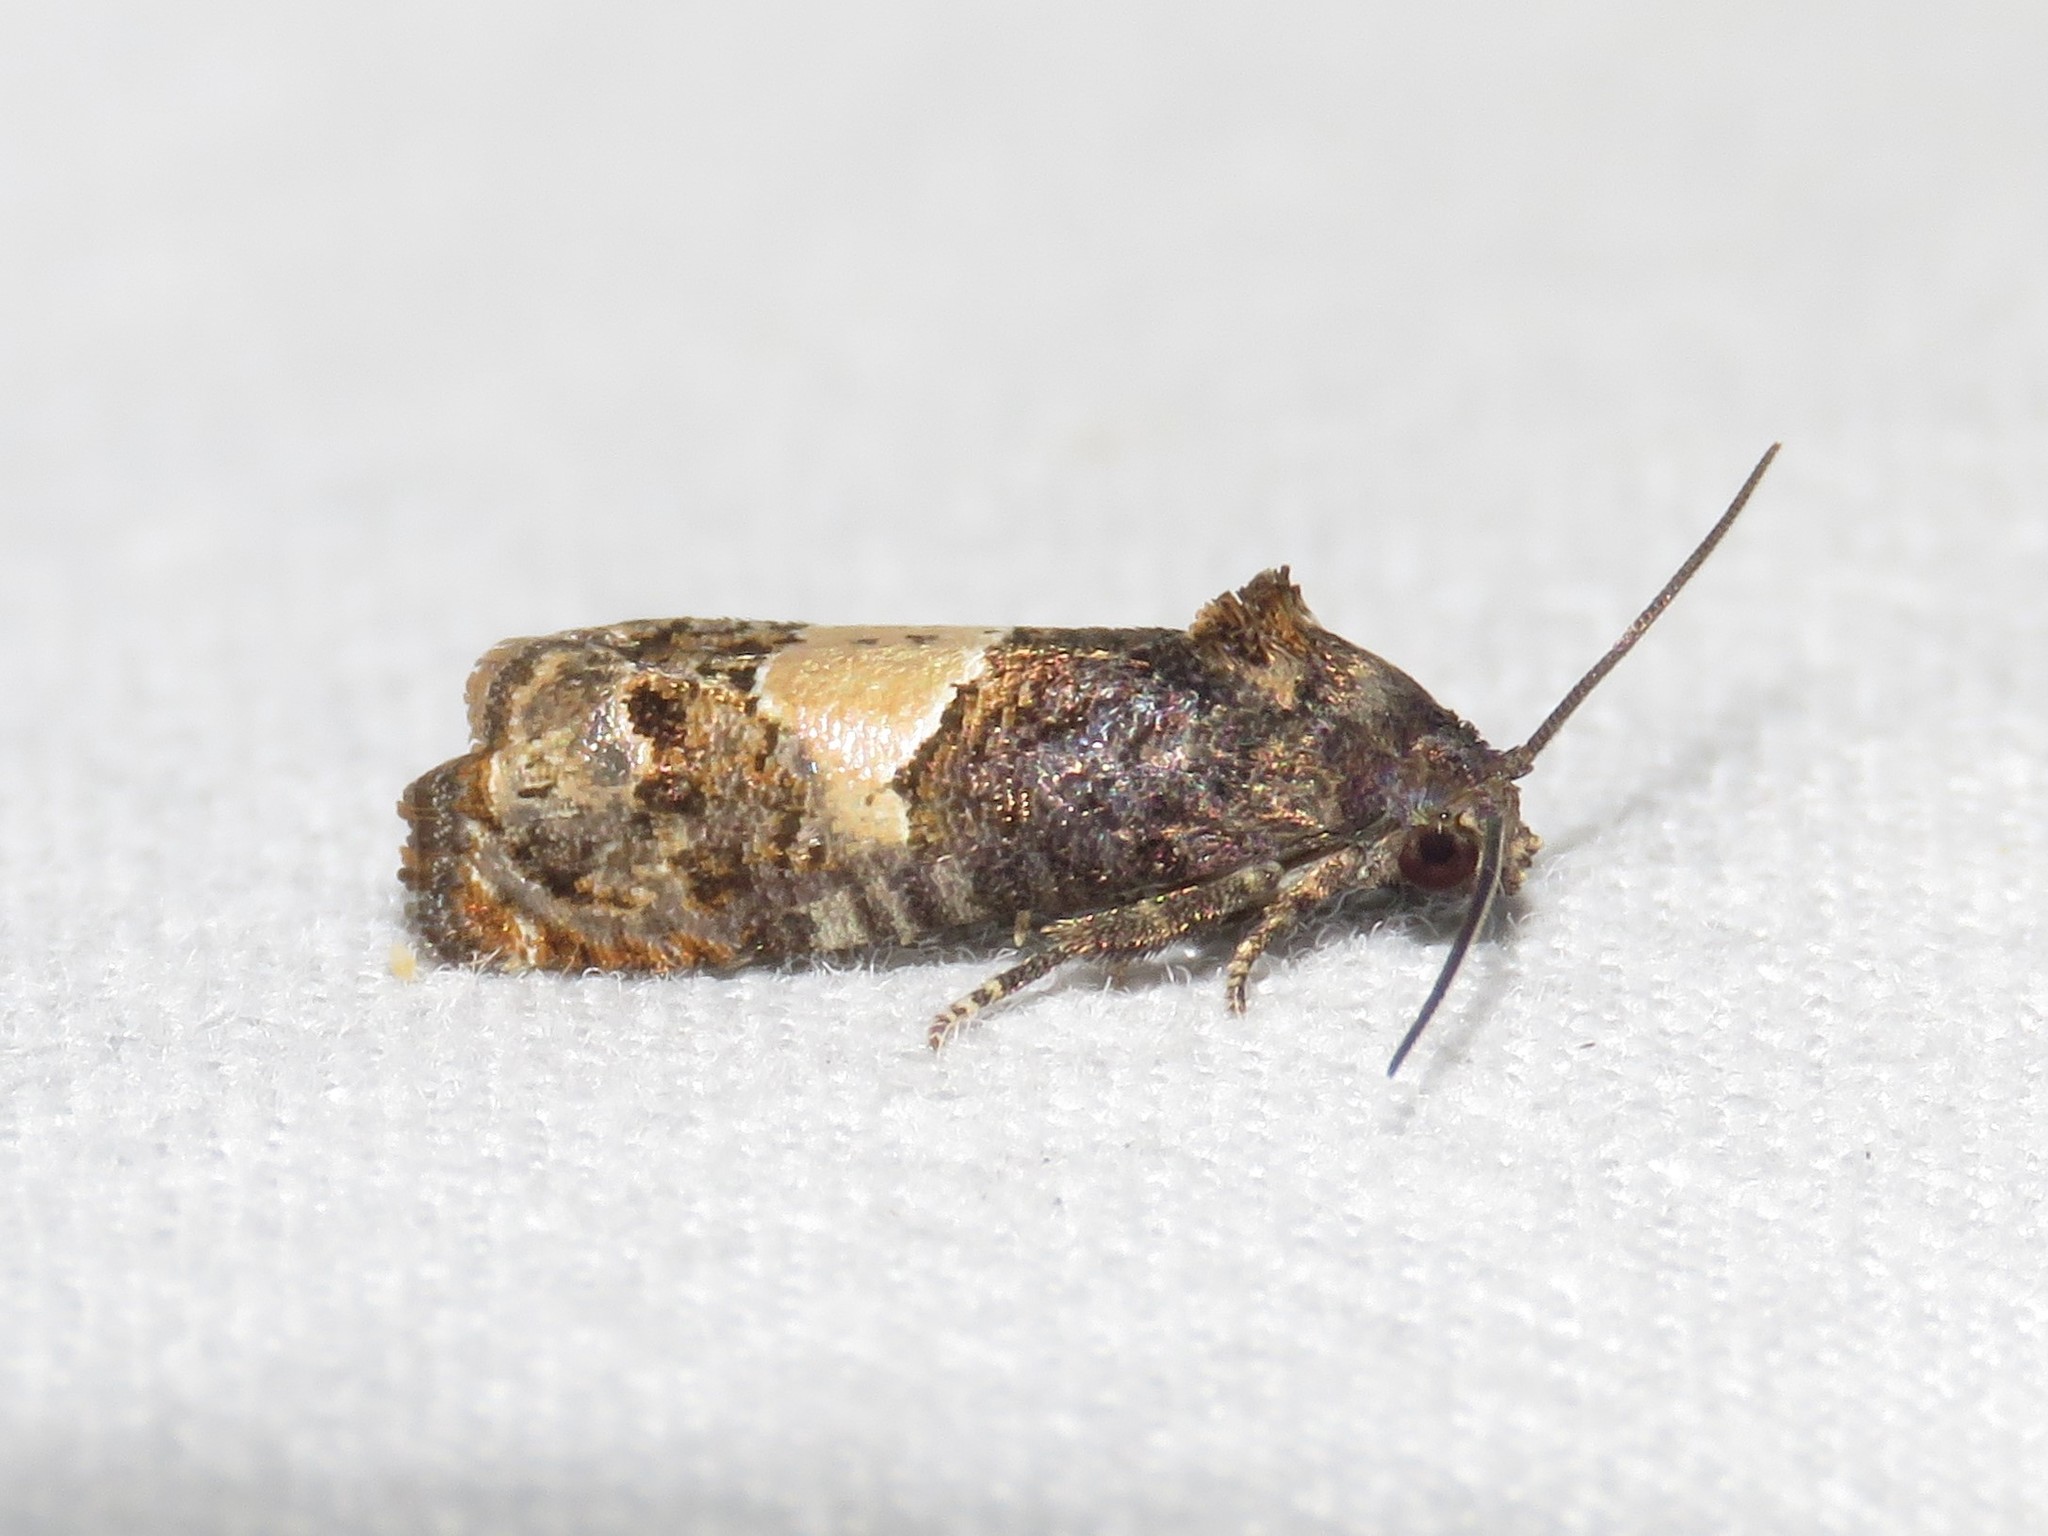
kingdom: Animalia
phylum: Arthropoda
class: Insecta
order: Lepidoptera
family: Tortricidae
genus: Epiblema
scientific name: Epiblema glenni
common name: Glenn's epiblema
